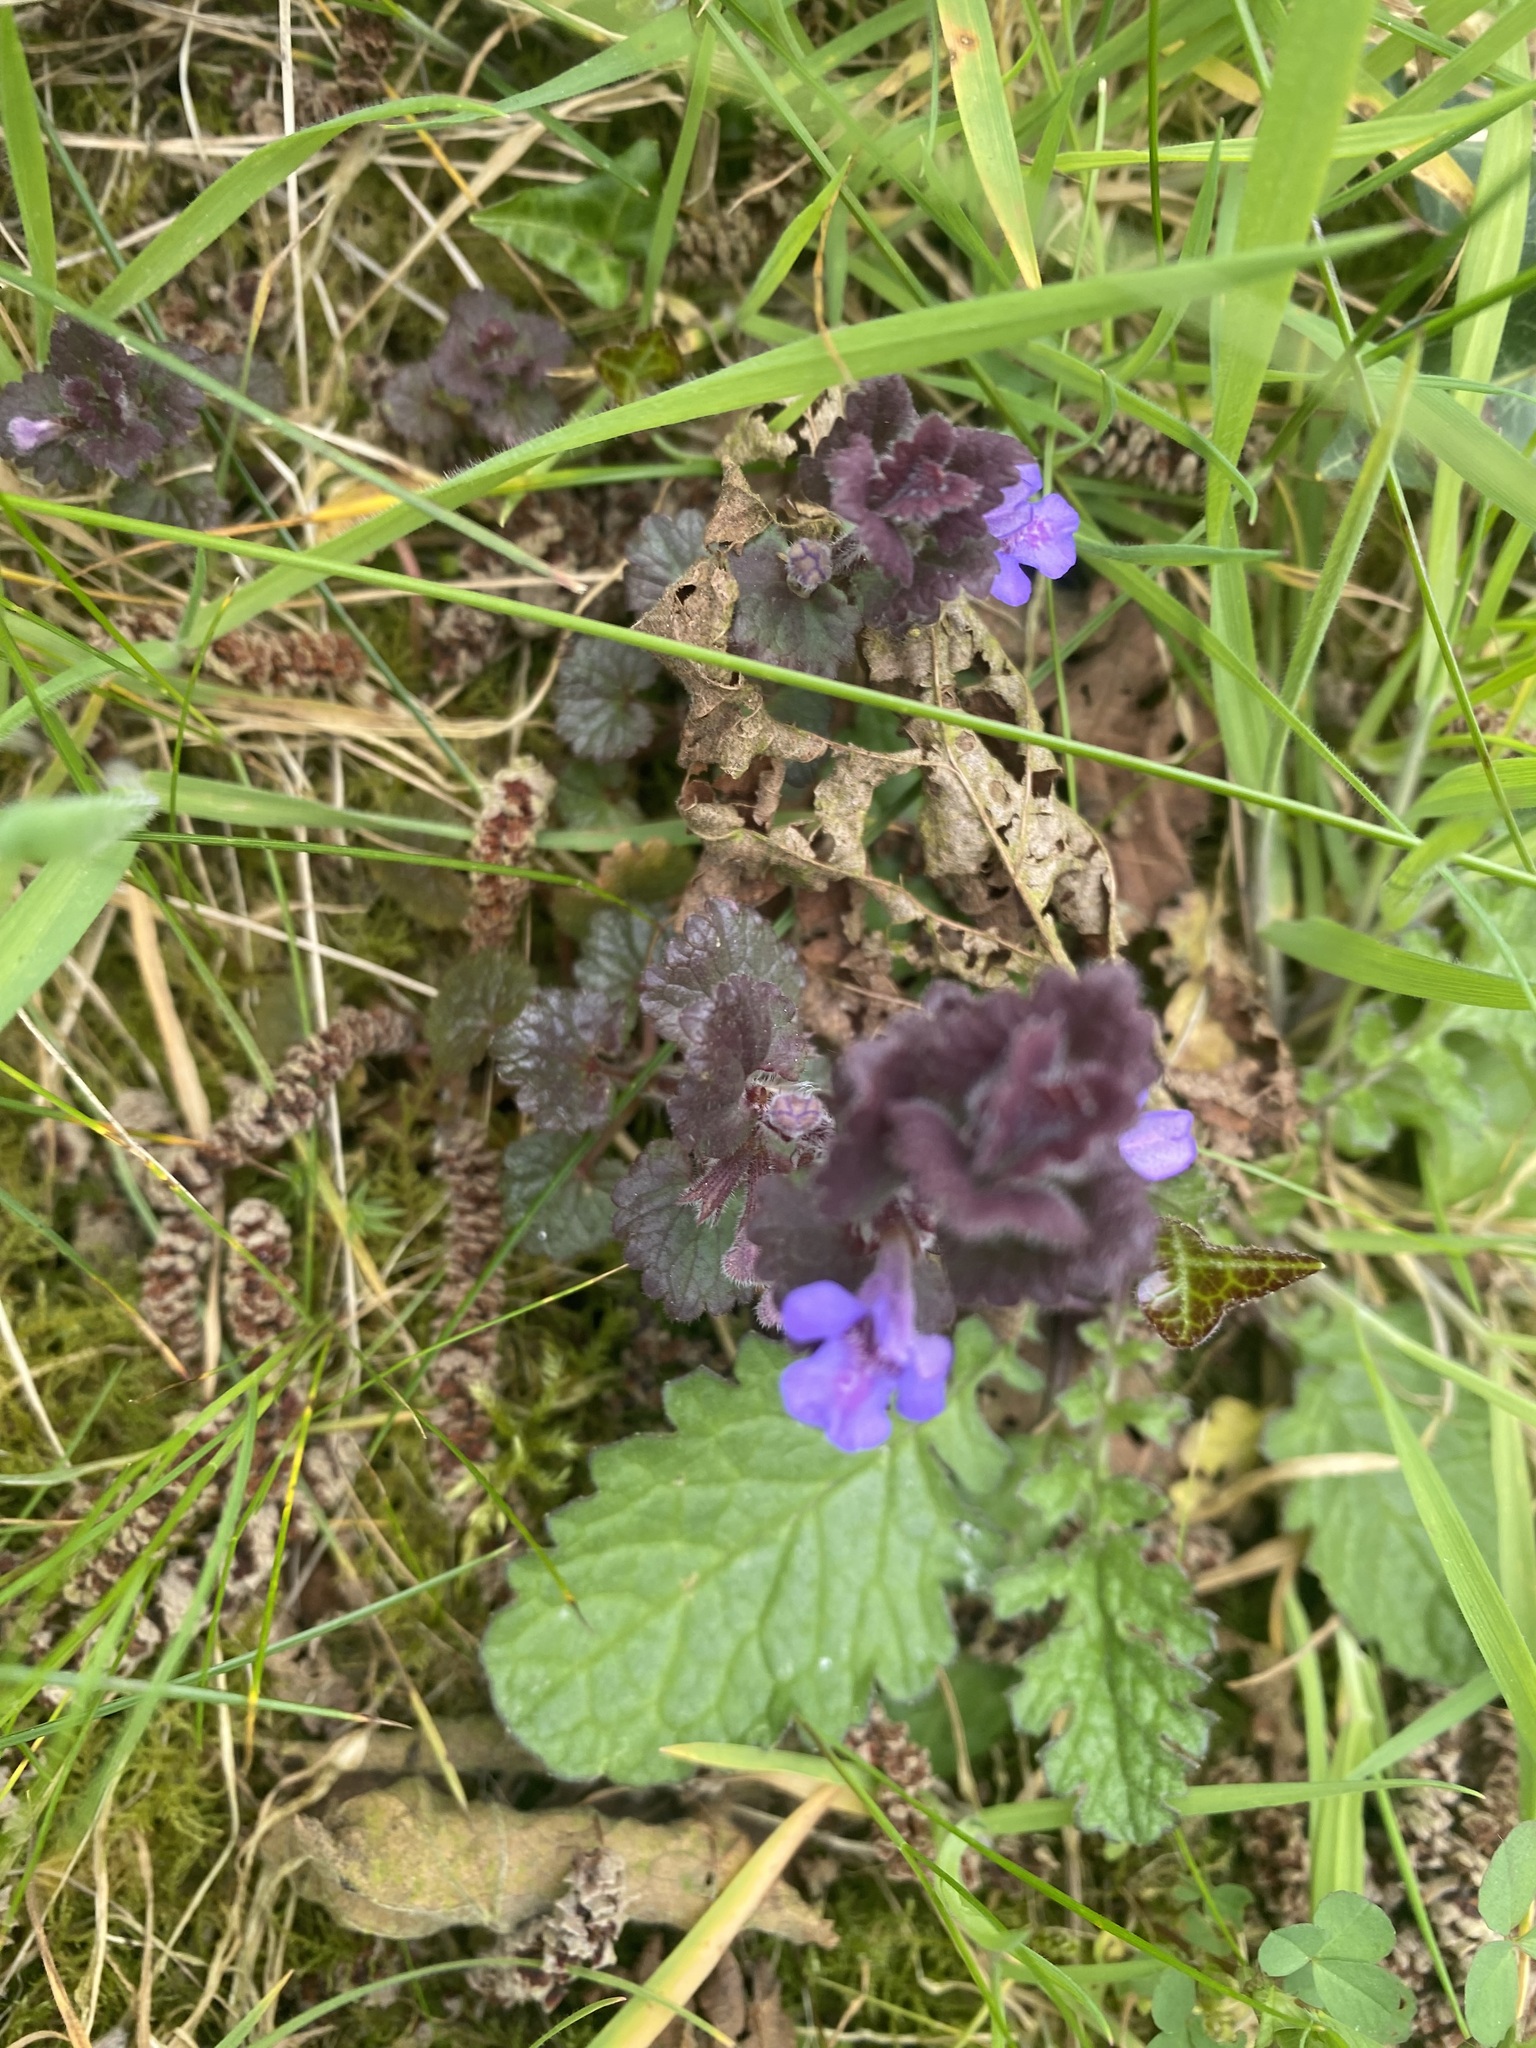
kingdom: Plantae
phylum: Tracheophyta
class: Magnoliopsida
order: Lamiales
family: Lamiaceae
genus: Glechoma
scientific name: Glechoma hederacea
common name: Ground ivy
